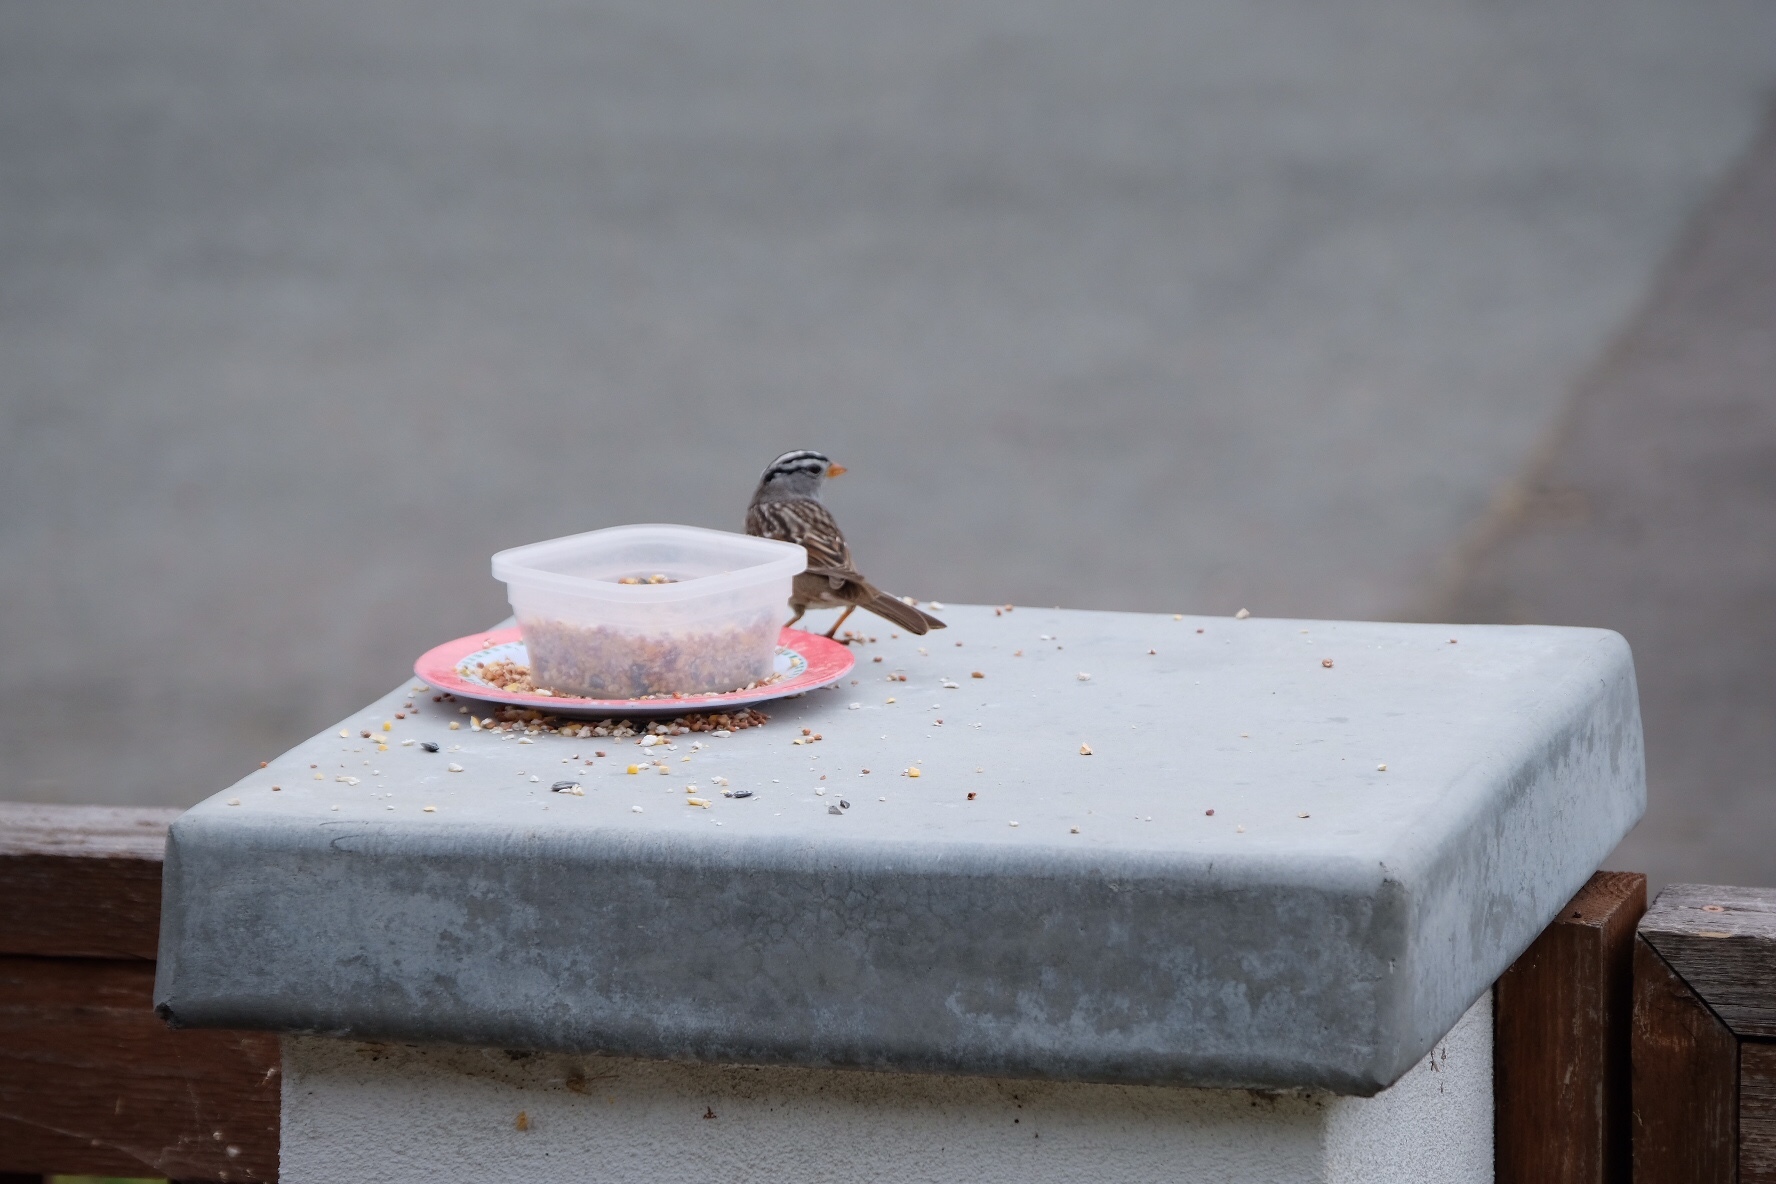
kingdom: Animalia
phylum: Chordata
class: Aves
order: Passeriformes
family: Passerellidae
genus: Zonotrichia
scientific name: Zonotrichia leucophrys
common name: White-crowned sparrow
